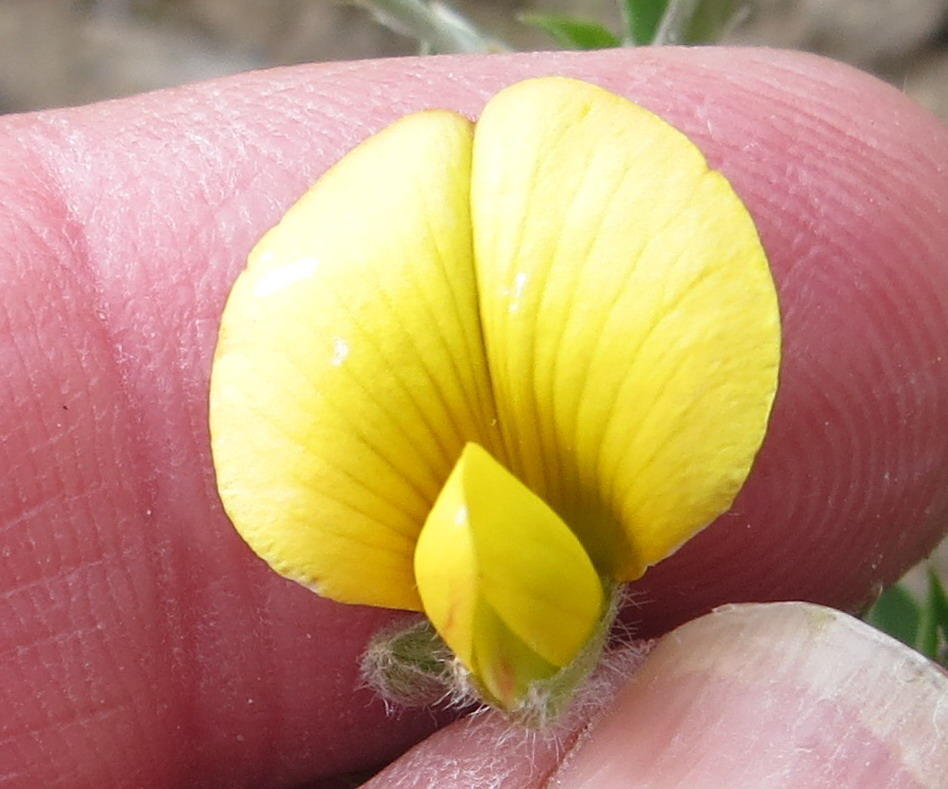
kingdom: Plantae
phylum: Tracheophyta
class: Magnoliopsida
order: Fabales
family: Fabaceae
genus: Argyrolobium
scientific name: Argyrolobium argenteum
